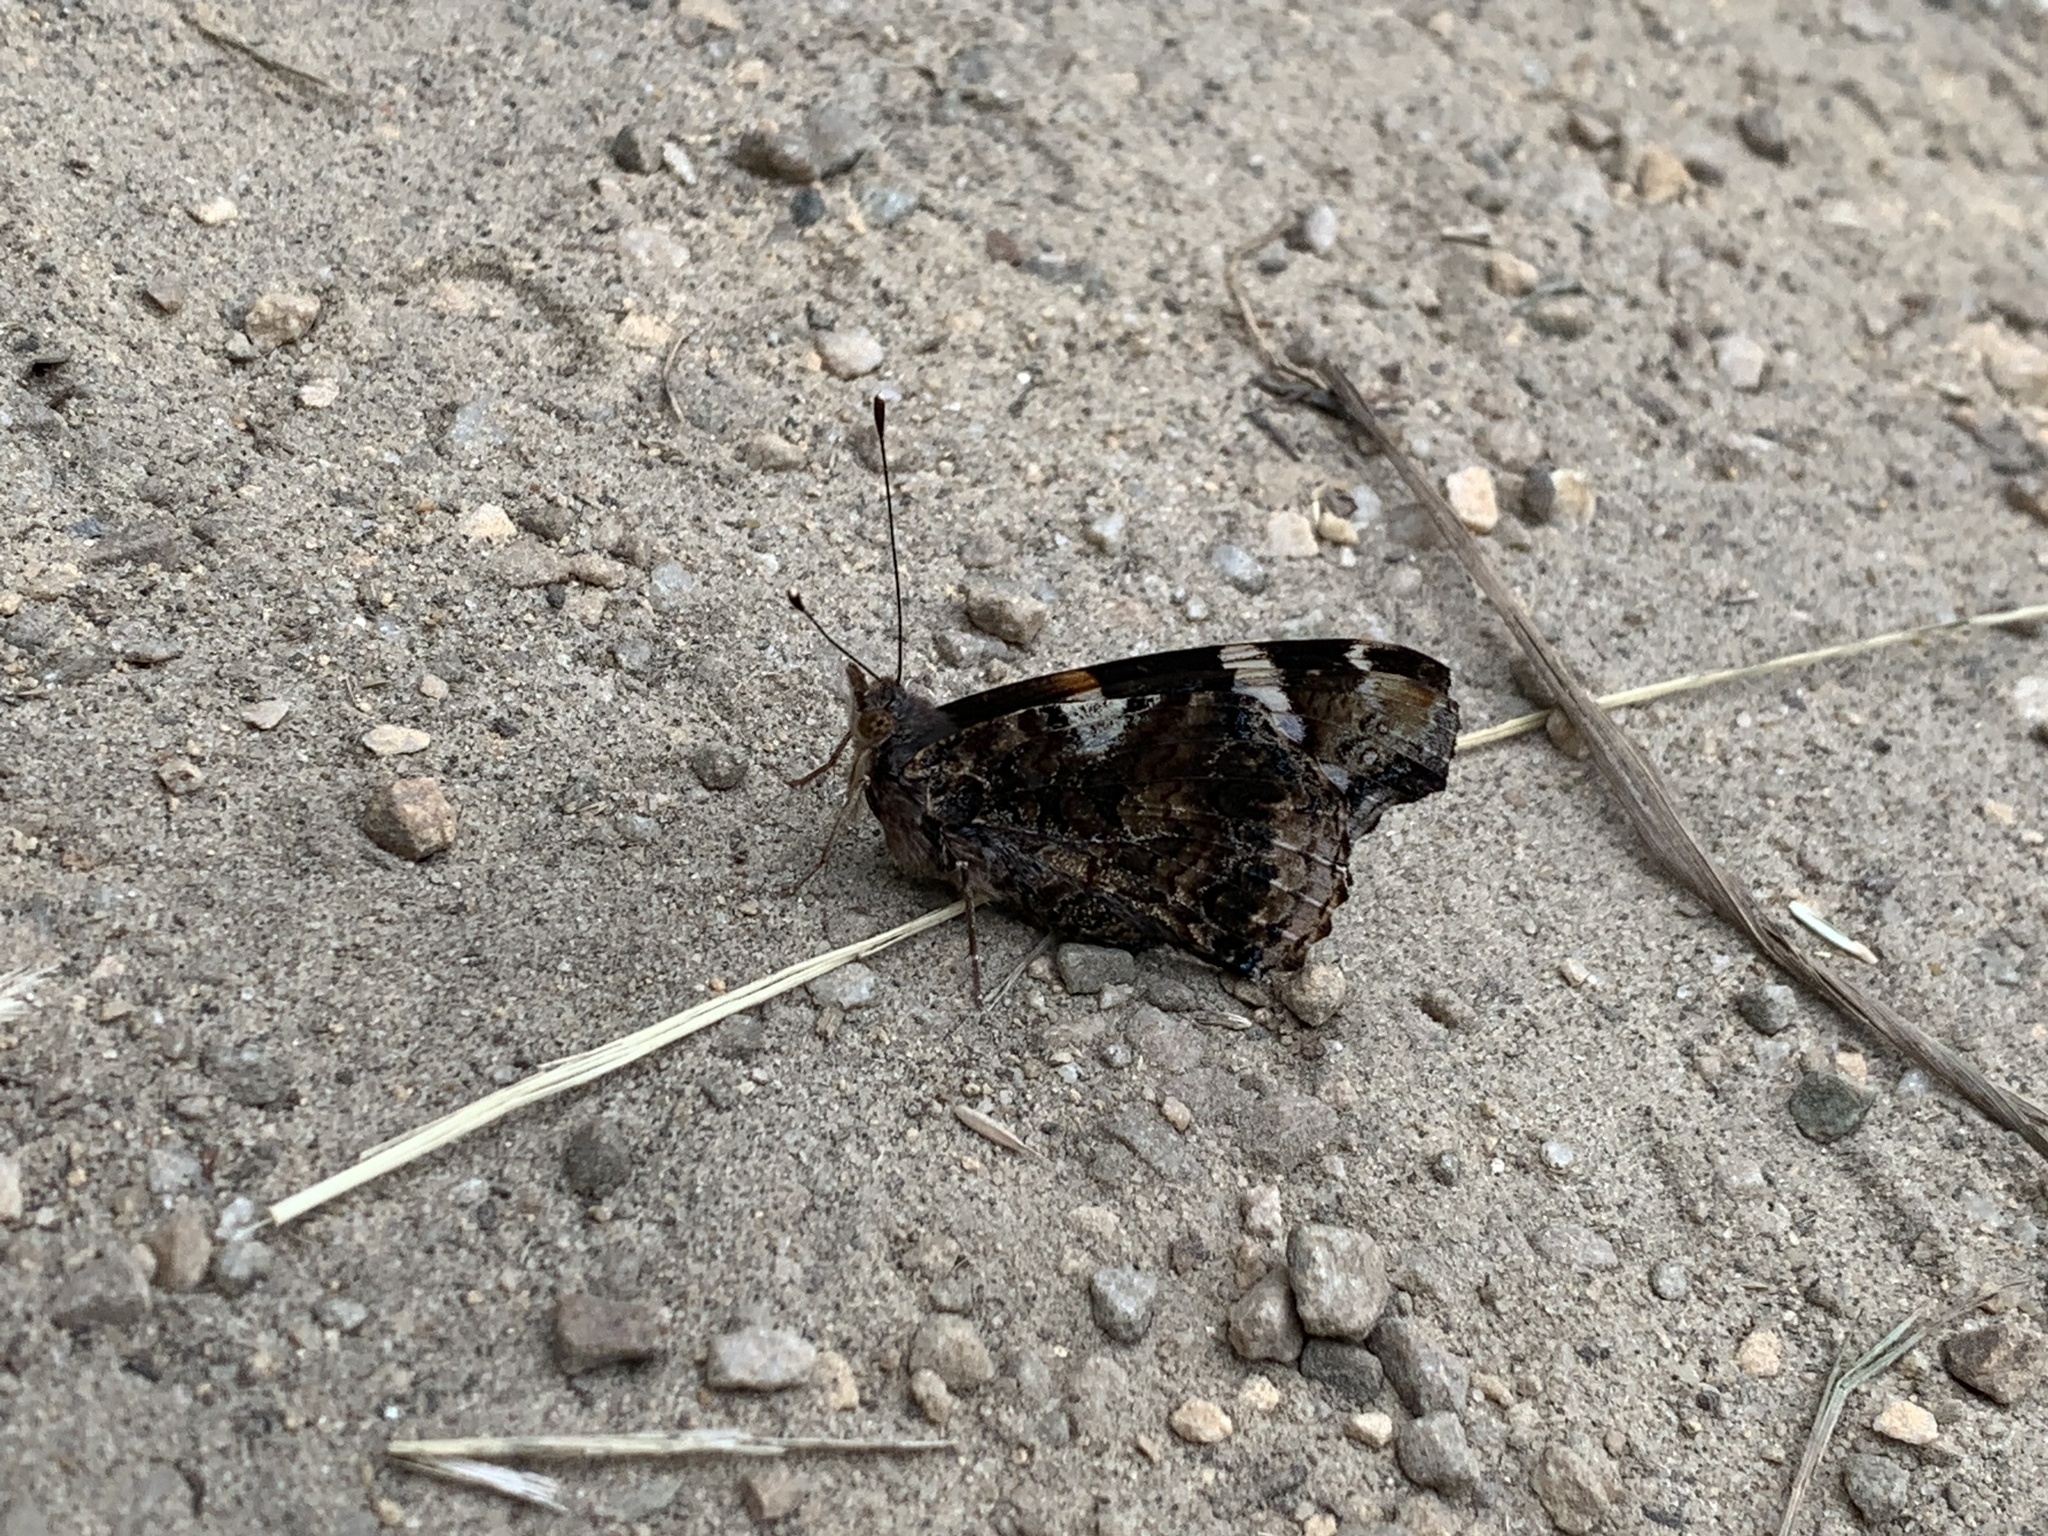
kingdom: Animalia
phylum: Arthropoda
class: Insecta
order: Lepidoptera
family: Nymphalidae
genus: Vanessa
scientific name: Vanessa atalanta
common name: Red admiral
